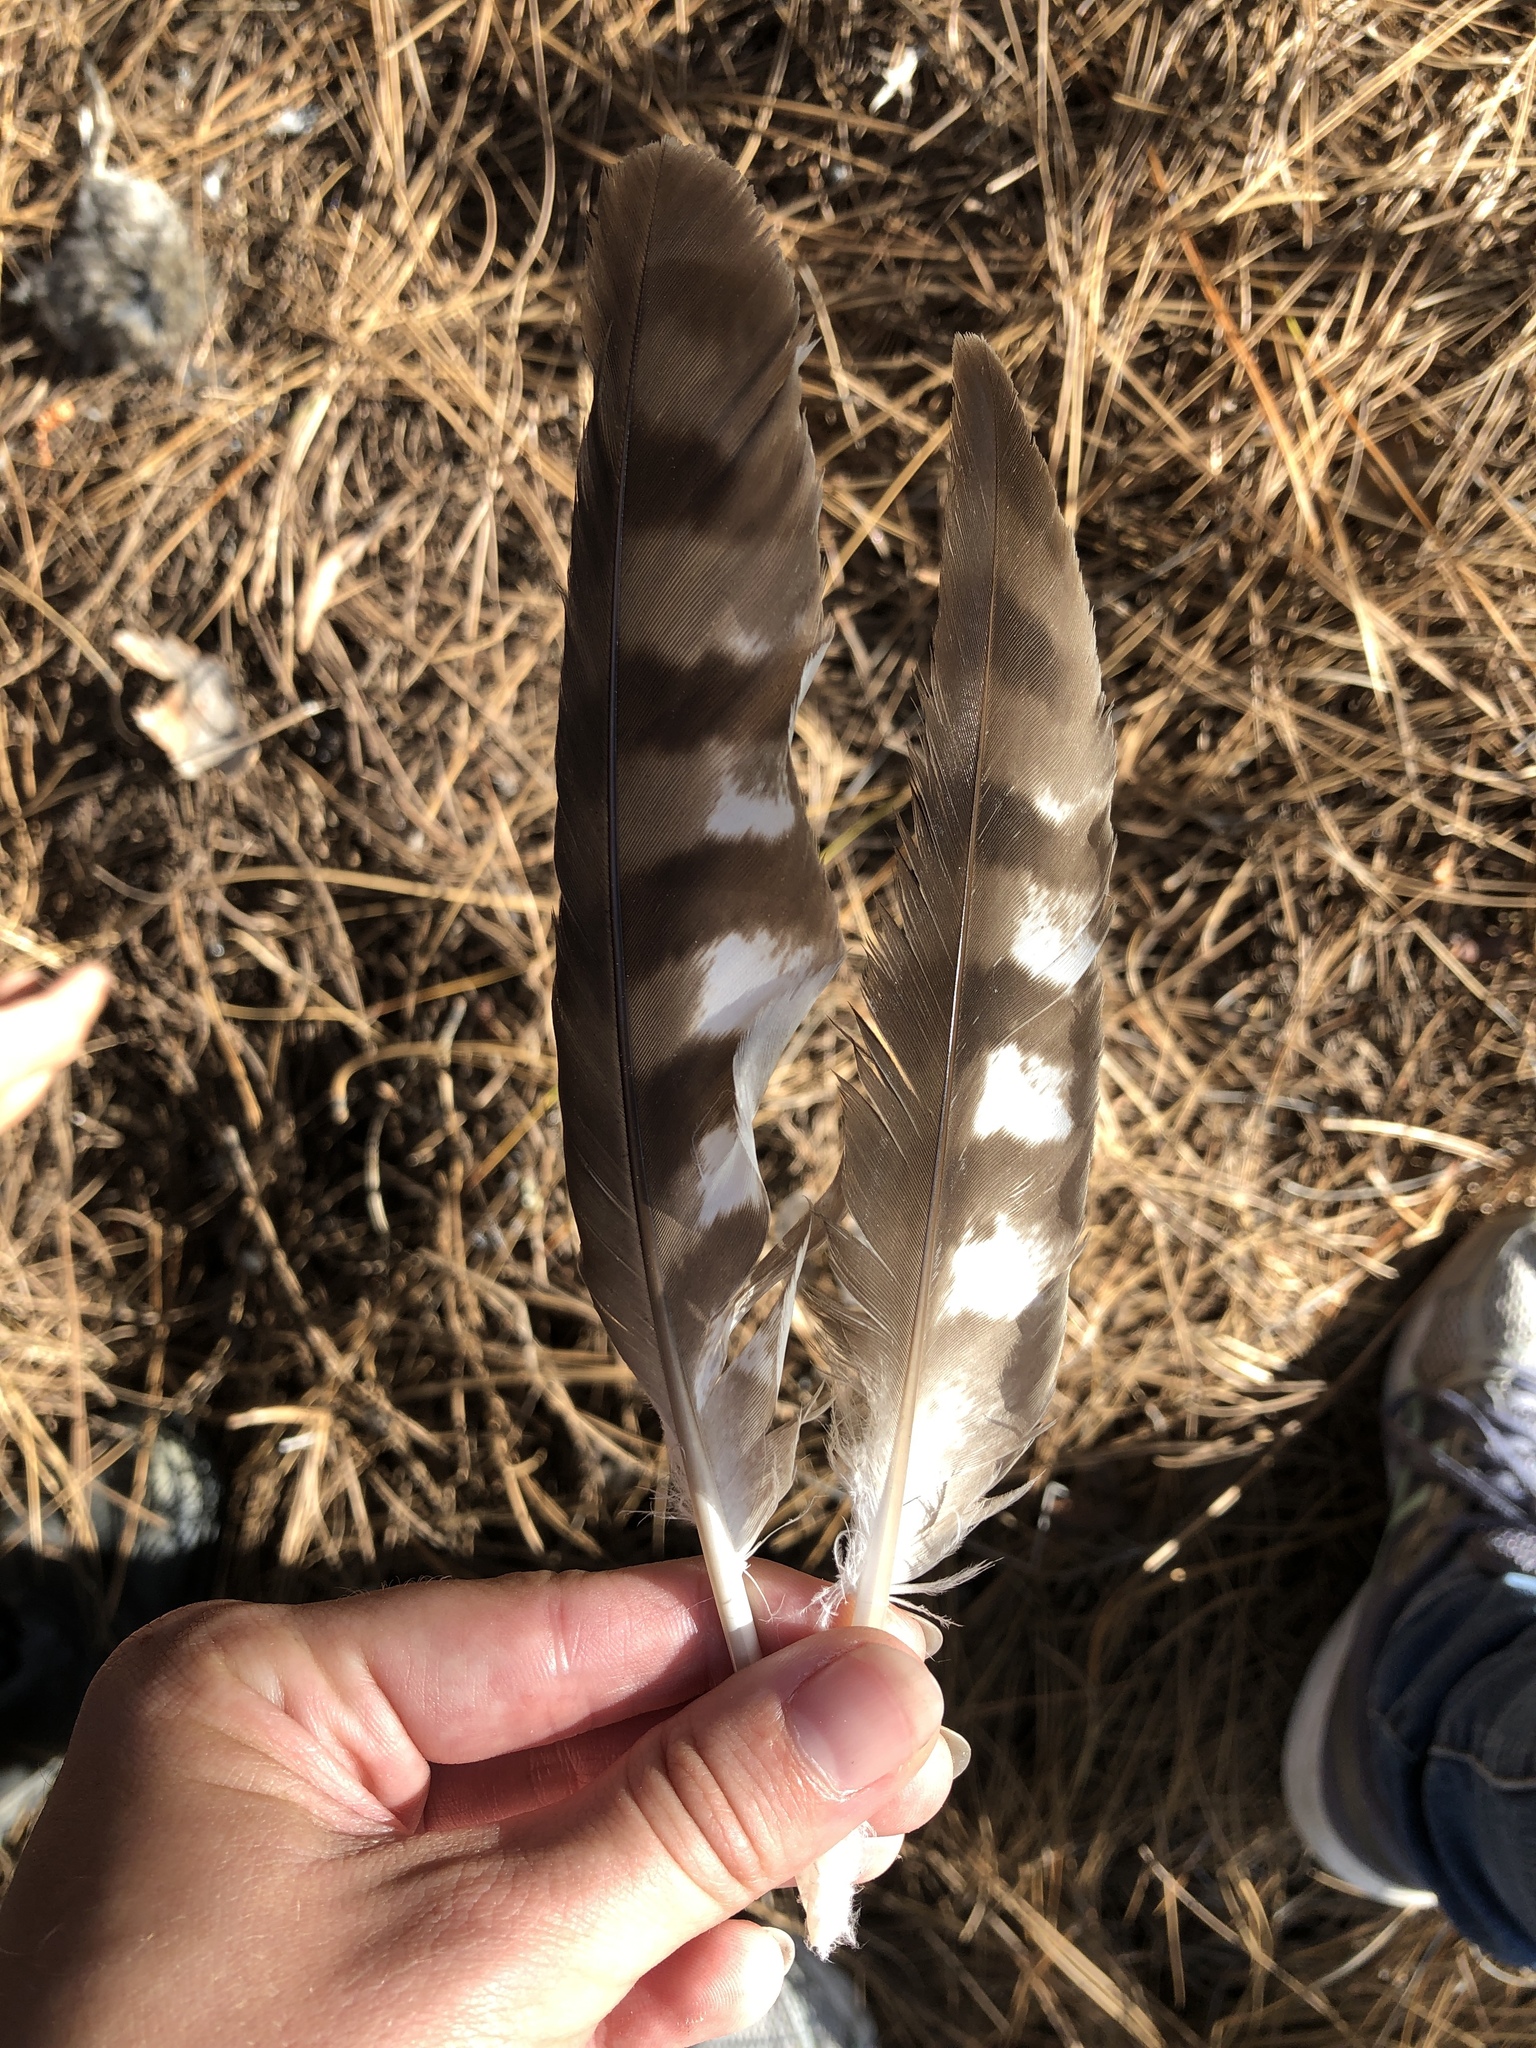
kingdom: Animalia
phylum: Chordata
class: Aves
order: Accipitriformes
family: Accipitridae
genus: Accipiter
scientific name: Accipiter cooperii
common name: Cooper's hawk
